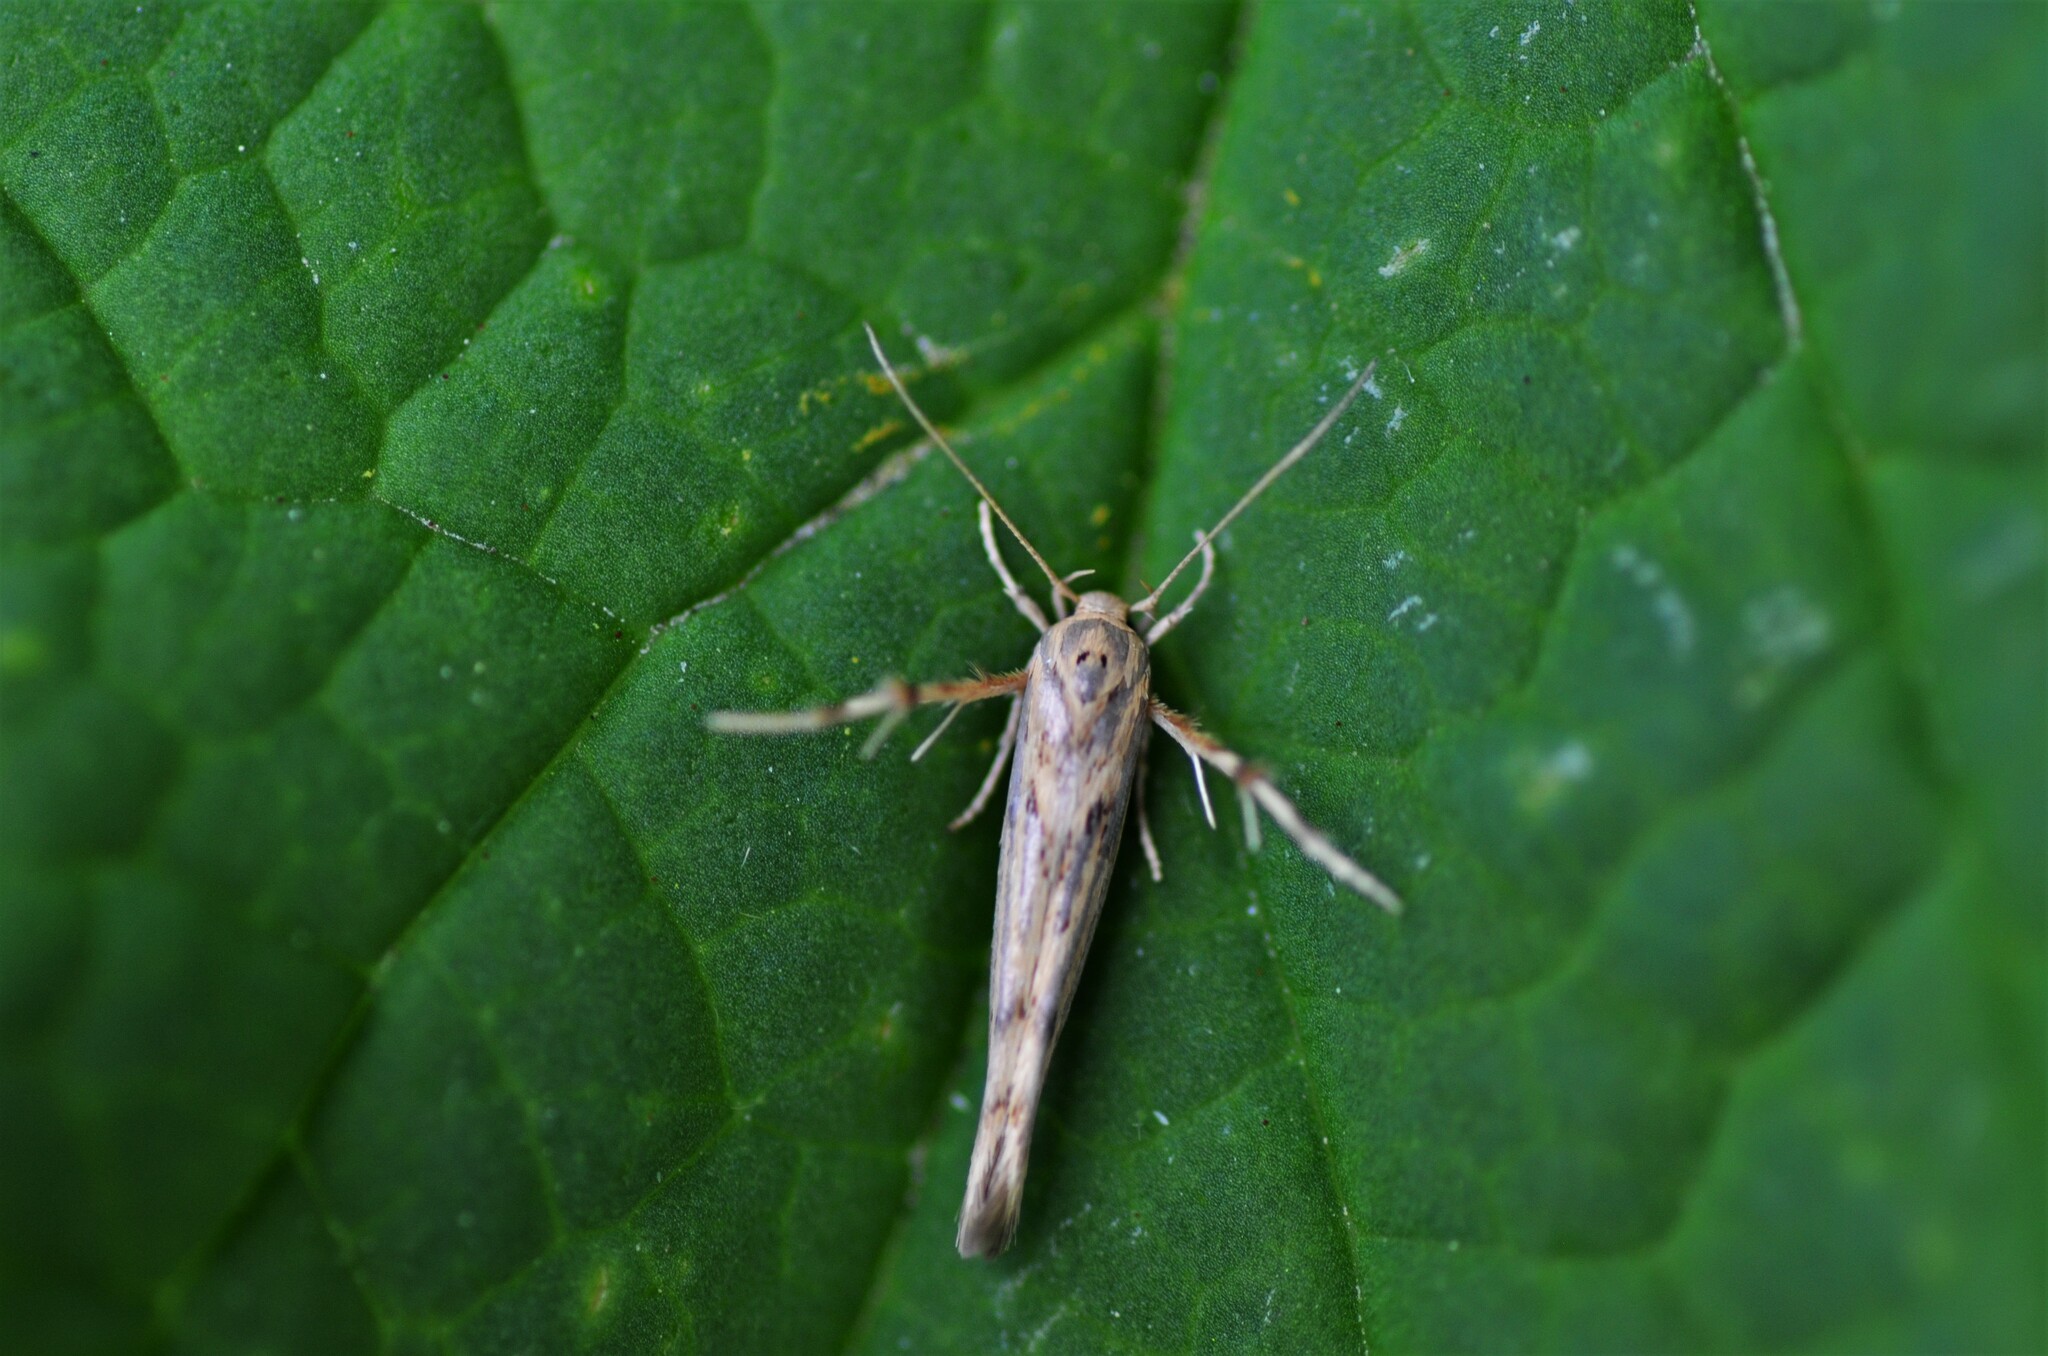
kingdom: Animalia
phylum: Arthropoda
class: Insecta
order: Lepidoptera
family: Stathmopodidae
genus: Stathmopoda
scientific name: Stathmopoda plumbiflua
